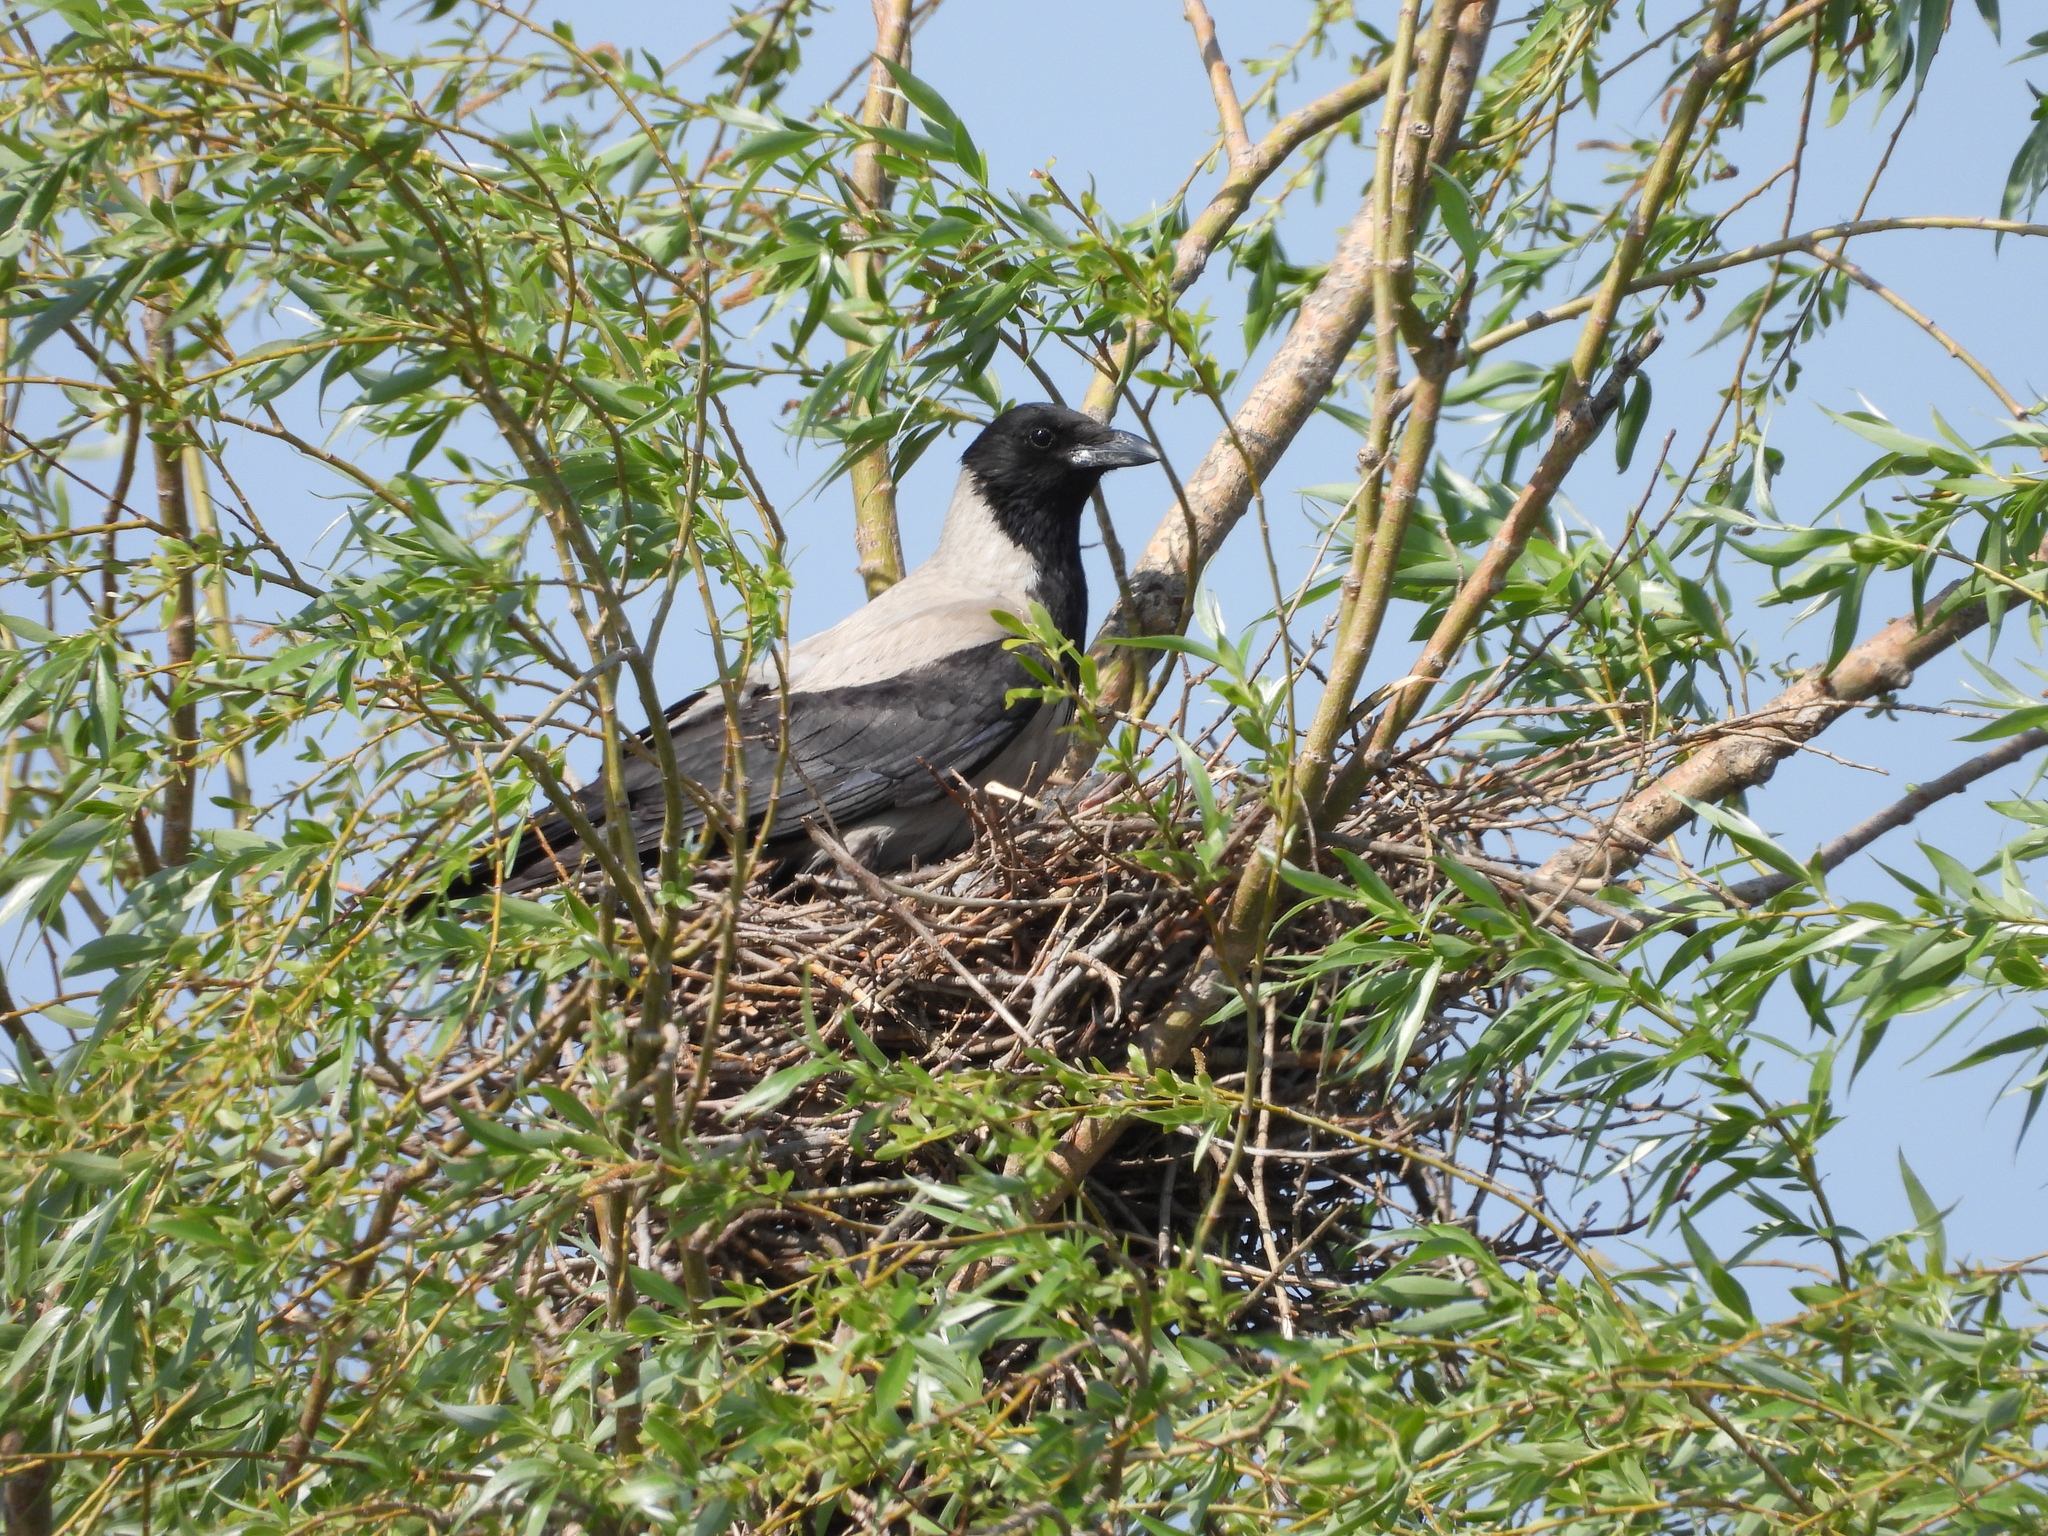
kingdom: Animalia
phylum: Chordata
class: Aves
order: Passeriformes
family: Corvidae
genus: Corvus
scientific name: Corvus cornix
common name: Hooded crow
